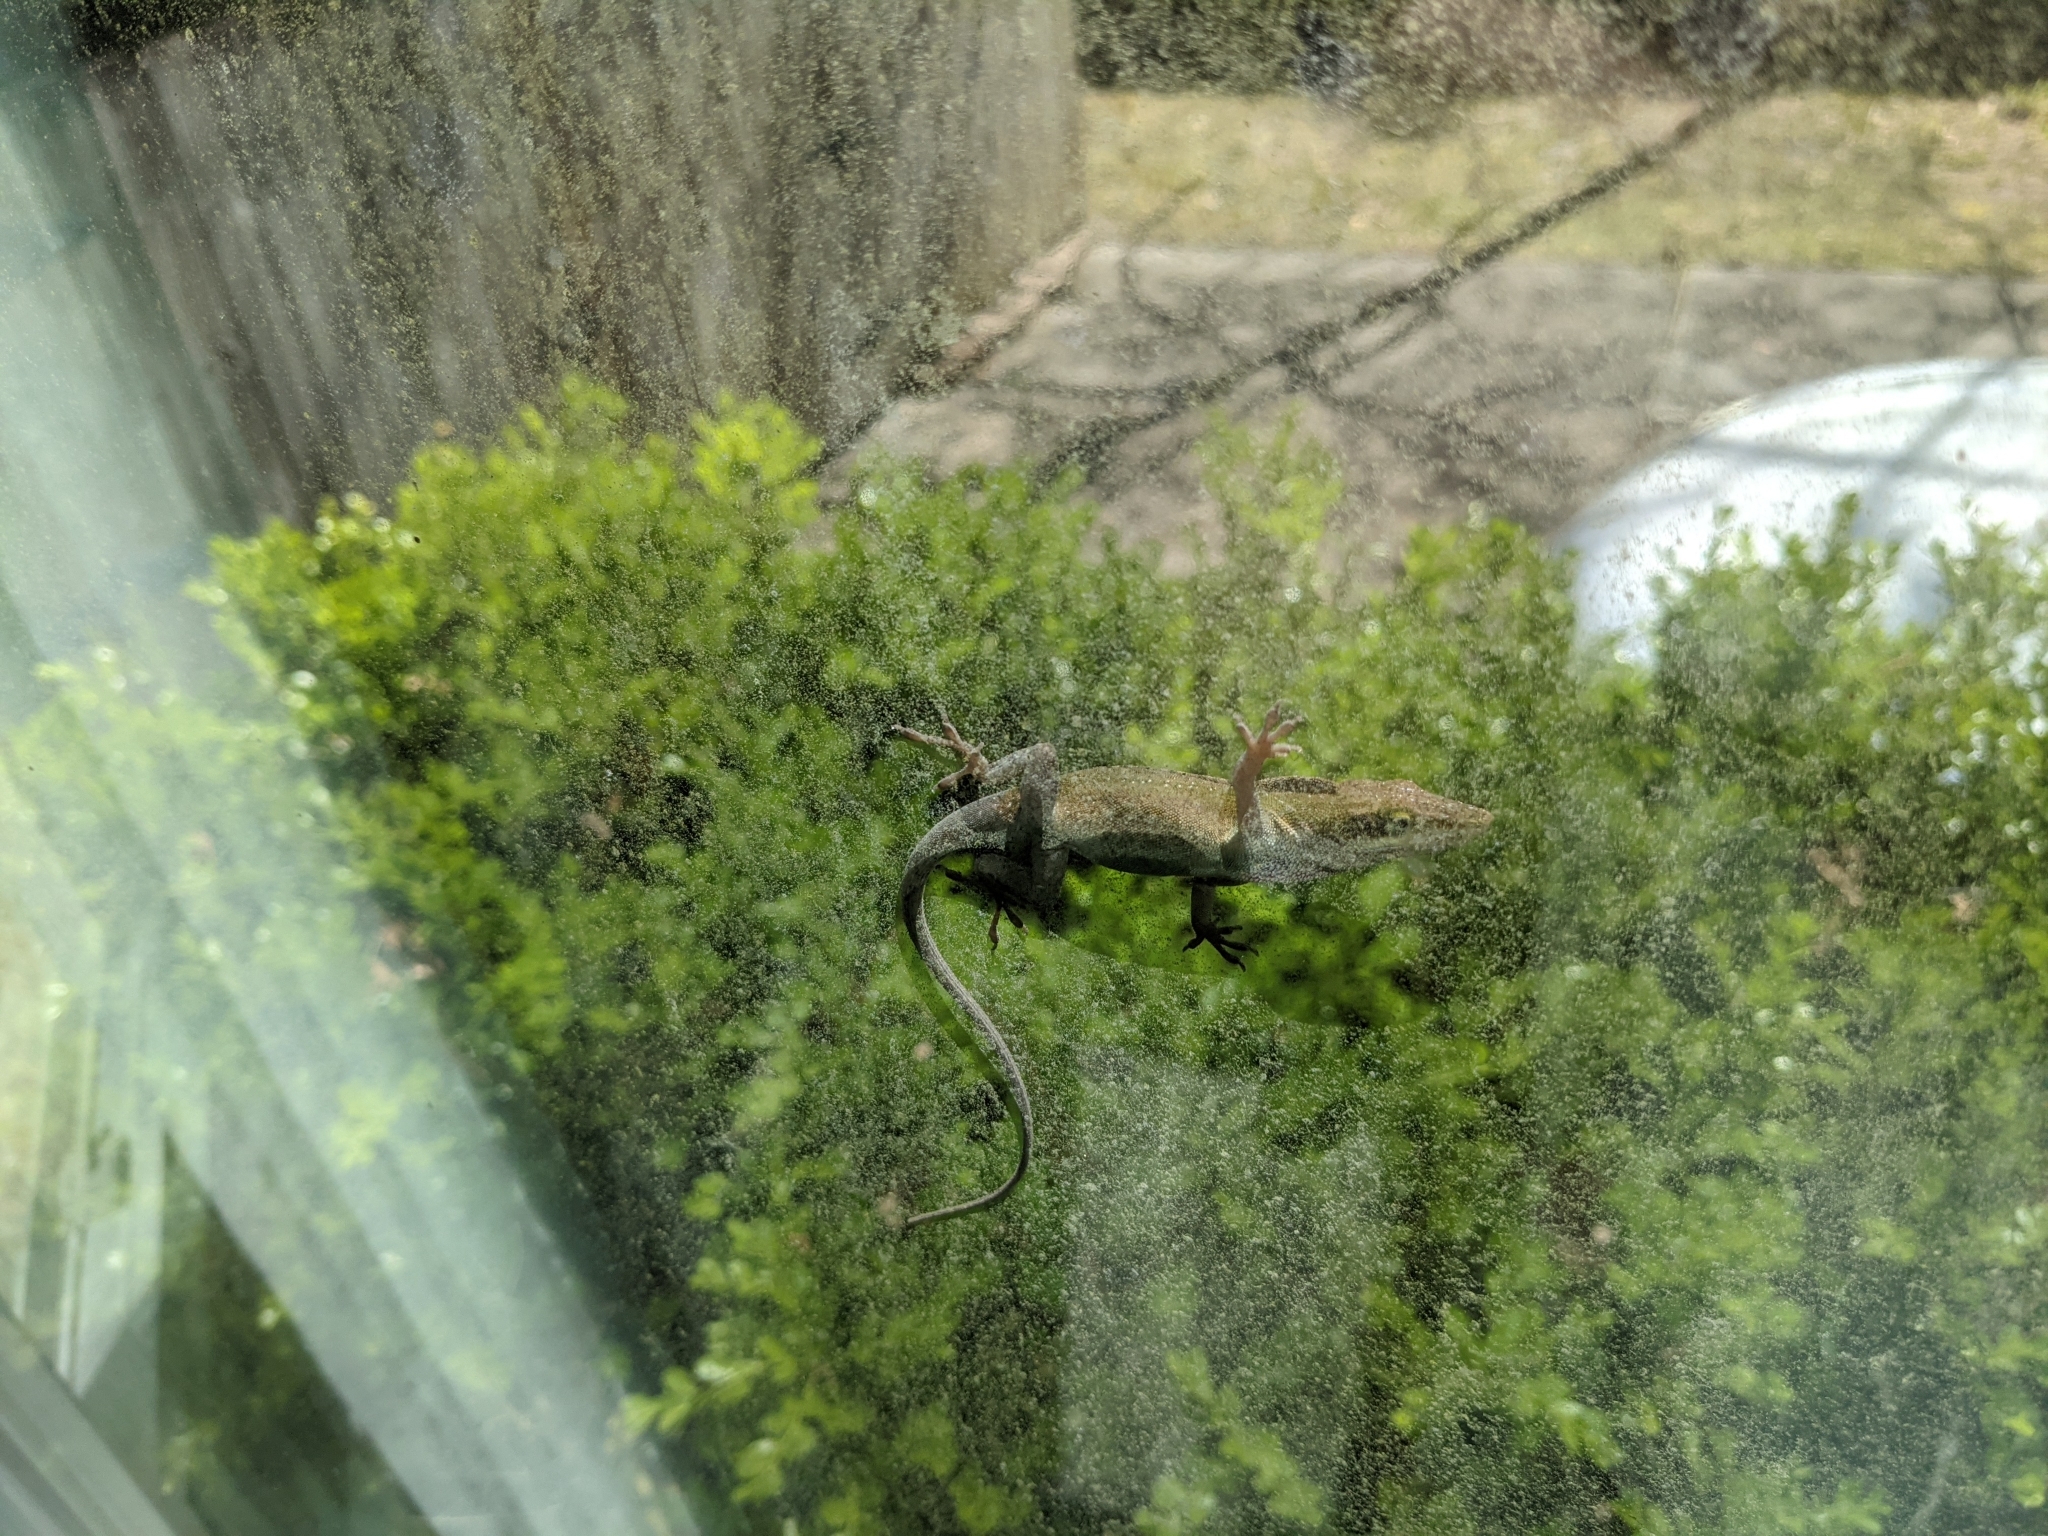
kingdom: Animalia
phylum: Chordata
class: Squamata
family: Dactyloidae
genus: Anolis
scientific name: Anolis carolinensis
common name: Green anole
